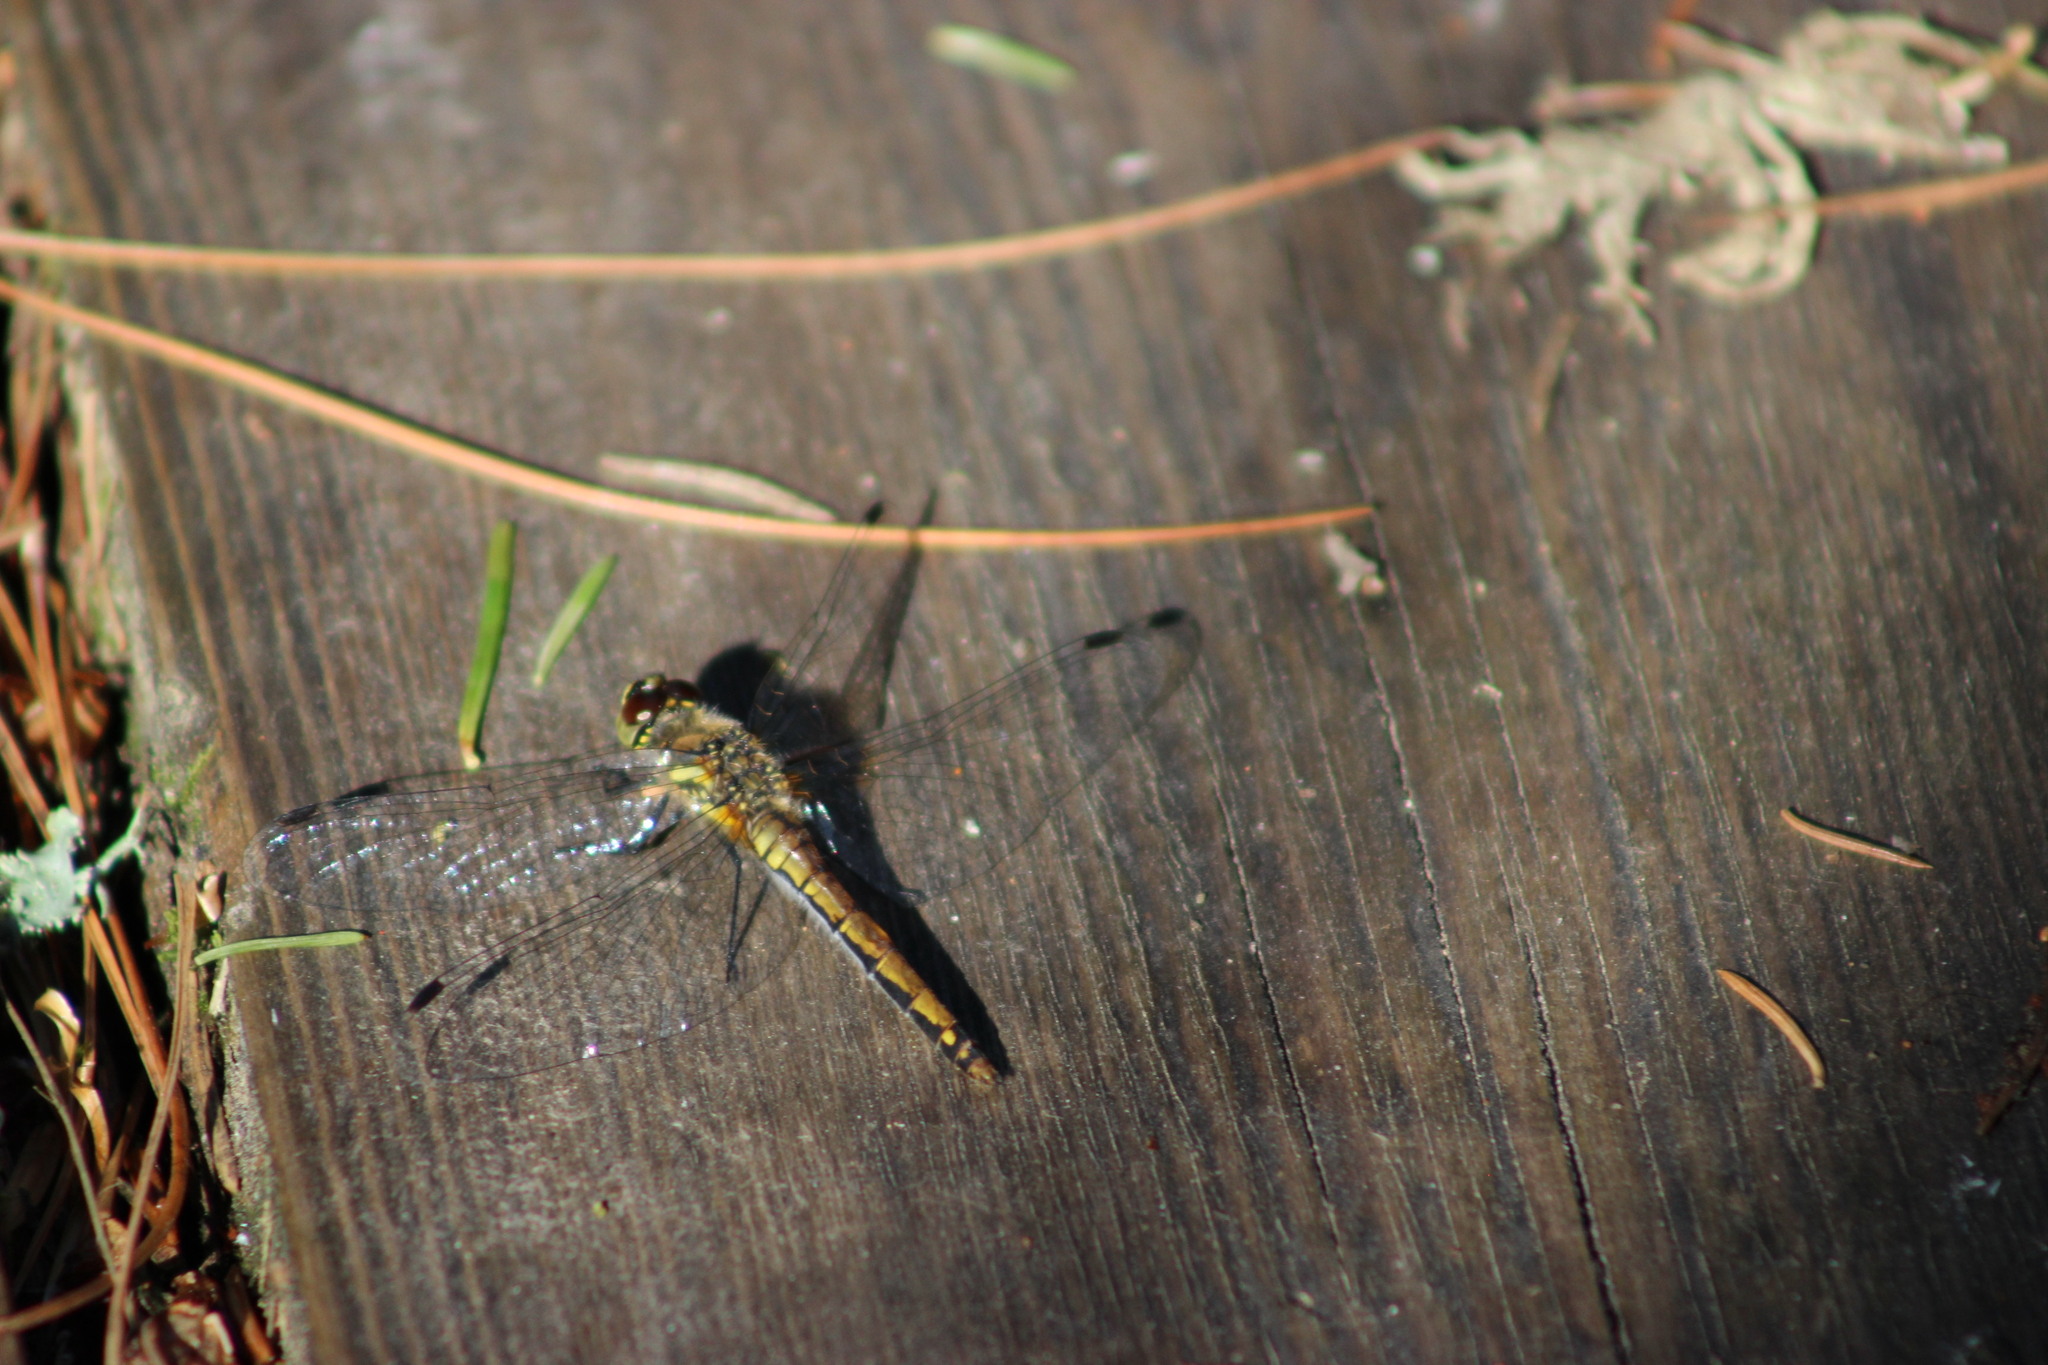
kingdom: Animalia
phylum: Arthropoda
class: Insecta
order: Odonata
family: Libellulidae
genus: Sympetrum
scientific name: Sympetrum danae
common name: Black darter
